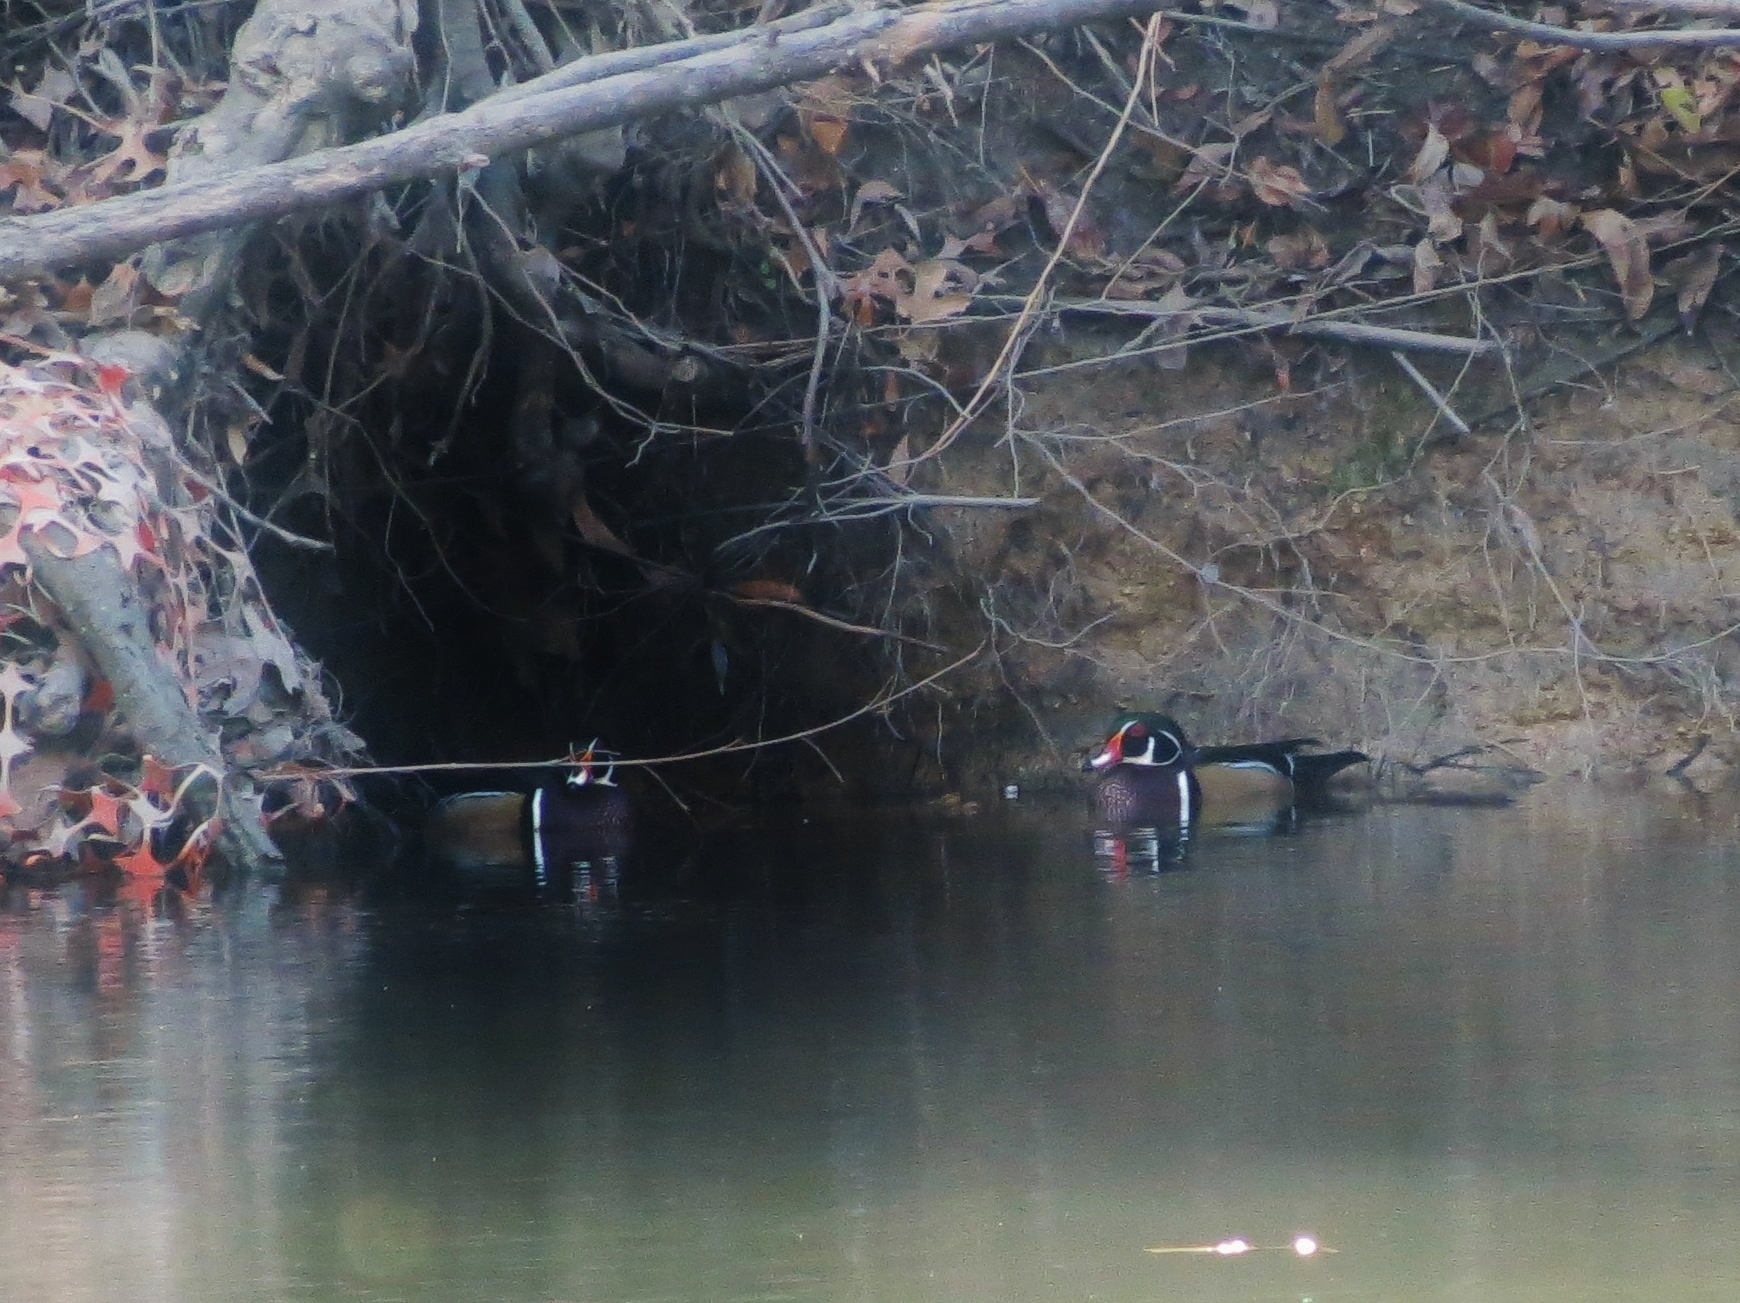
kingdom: Animalia
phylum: Chordata
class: Aves
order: Anseriformes
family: Anatidae
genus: Aix
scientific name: Aix sponsa
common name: Wood duck
